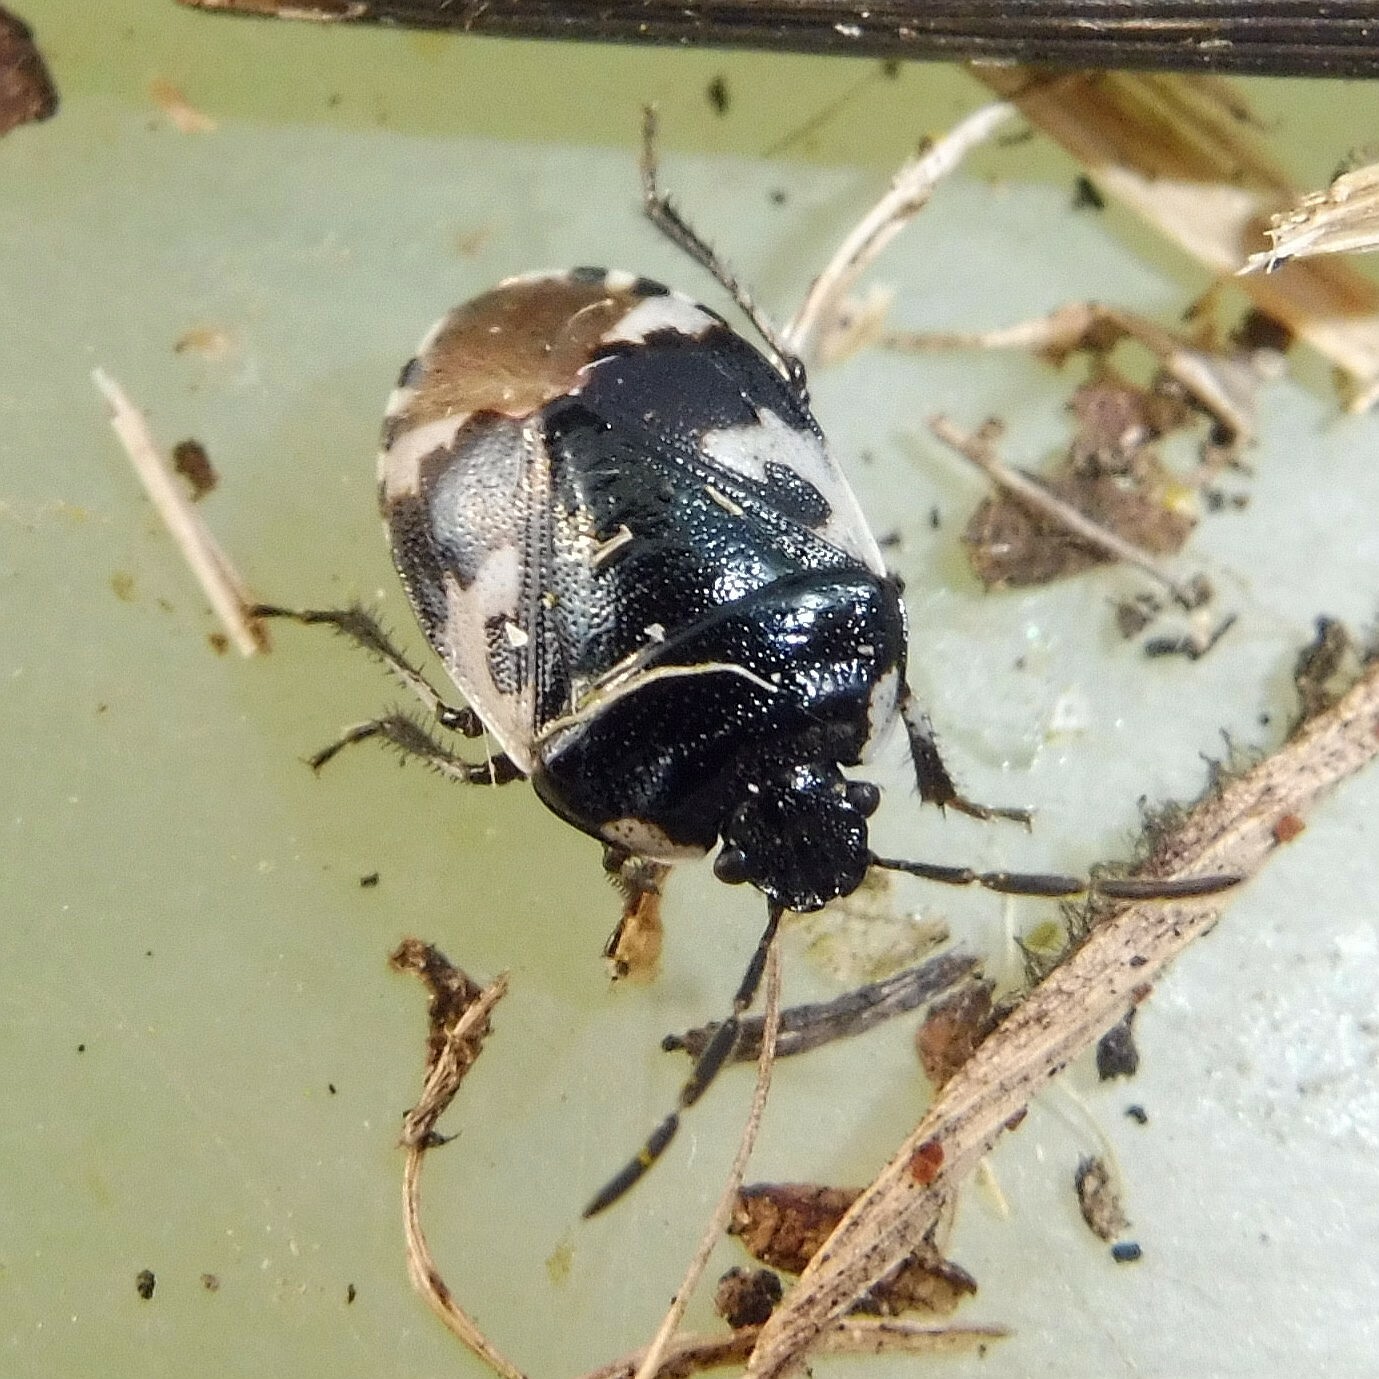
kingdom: Animalia
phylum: Arthropoda
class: Insecta
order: Hemiptera
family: Cydnidae
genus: Tritomegas
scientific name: Tritomegas bicolor
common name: Pied shieldbug
